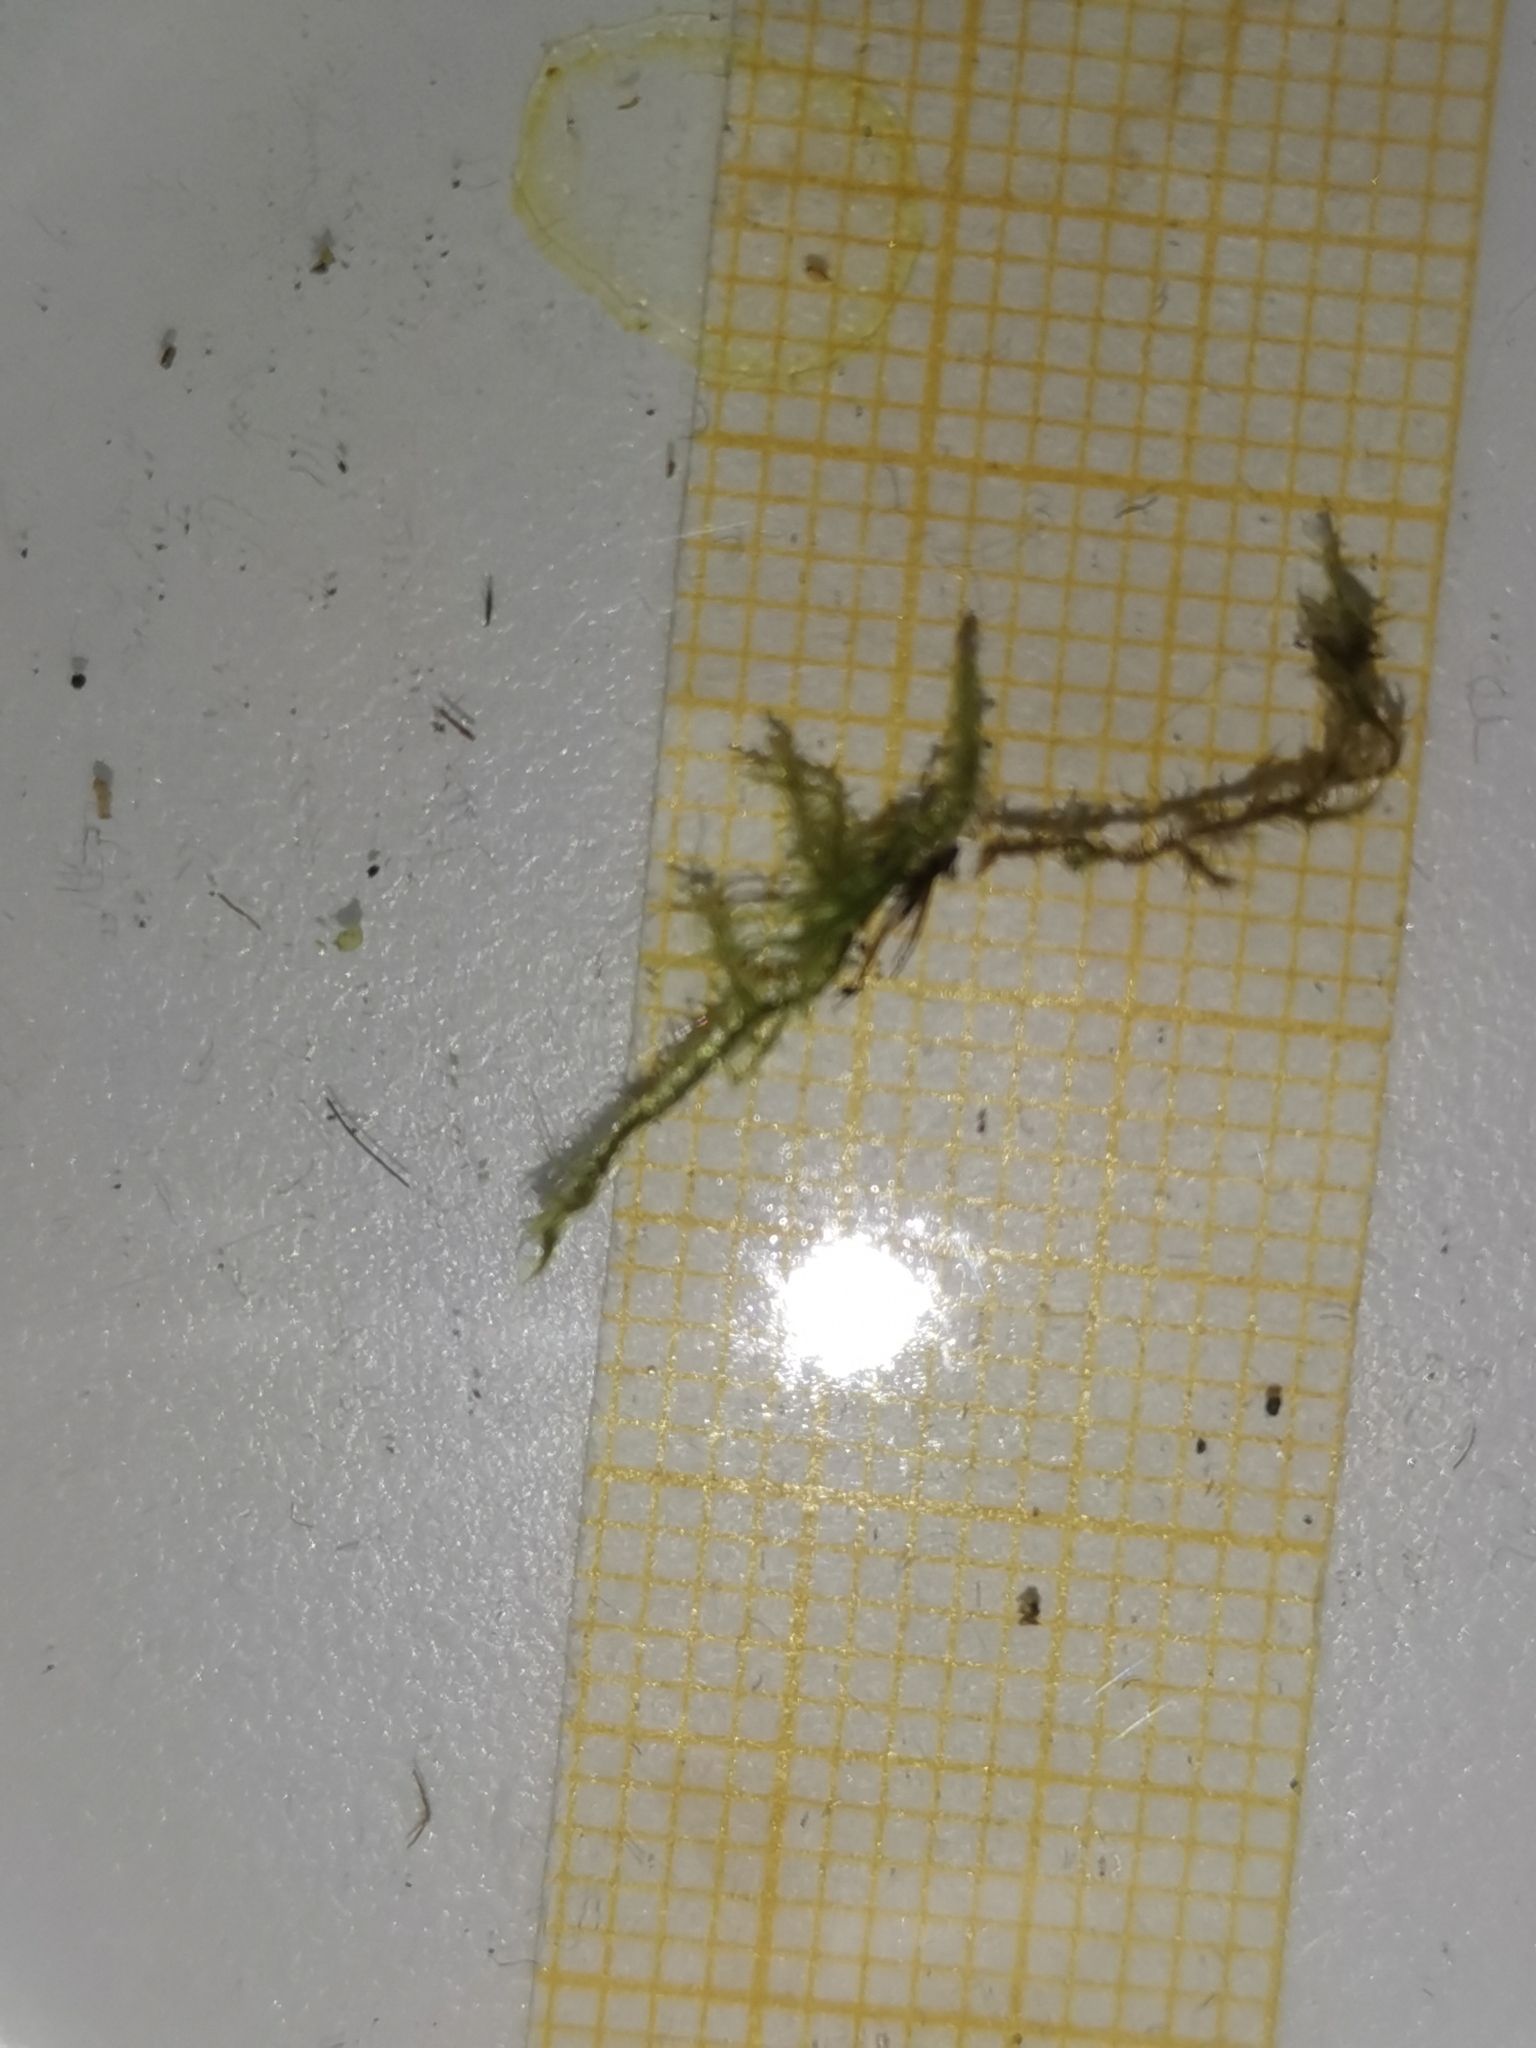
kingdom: Plantae
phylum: Bryophyta
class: Bryopsida
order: Hypnales
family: Amblystegiaceae
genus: Campylophyllopsis
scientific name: Campylophyllopsis calcarea
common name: Chalk feather-moss
